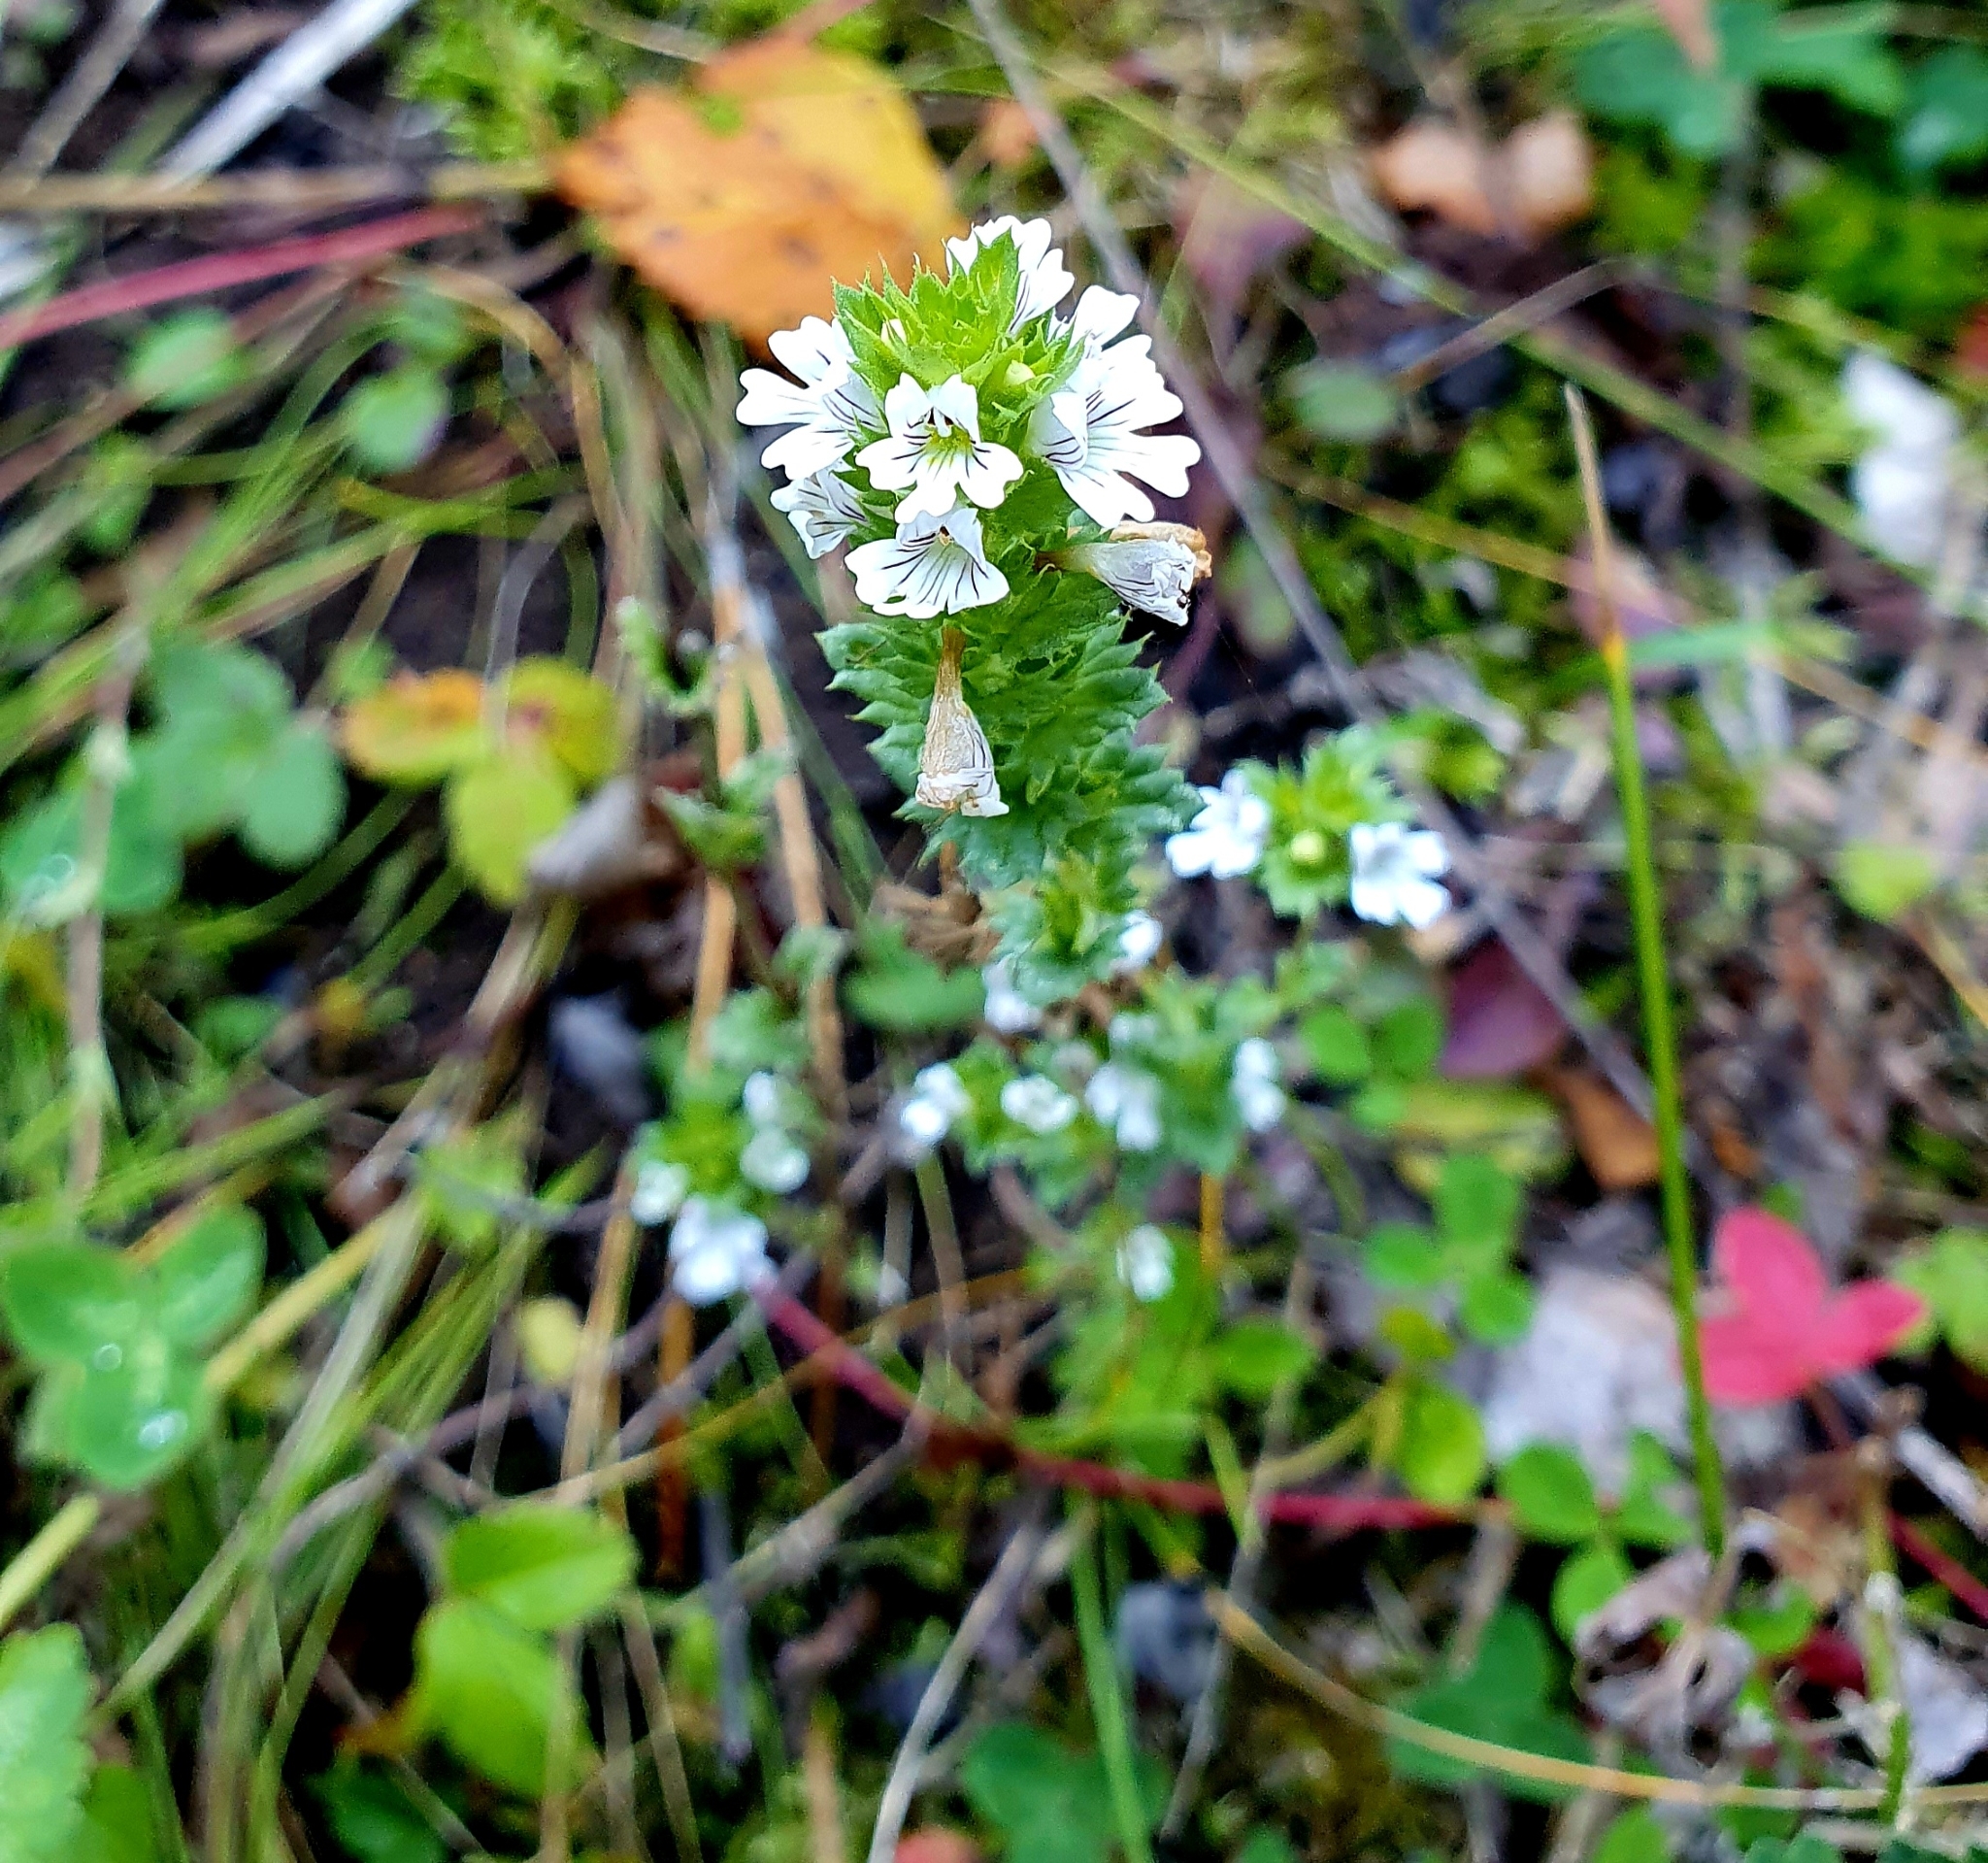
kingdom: Plantae
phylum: Tracheophyta
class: Magnoliopsida
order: Lamiales
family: Orobanchaceae
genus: Euphrasia
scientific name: Euphrasia stricta
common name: Drug eyebright
